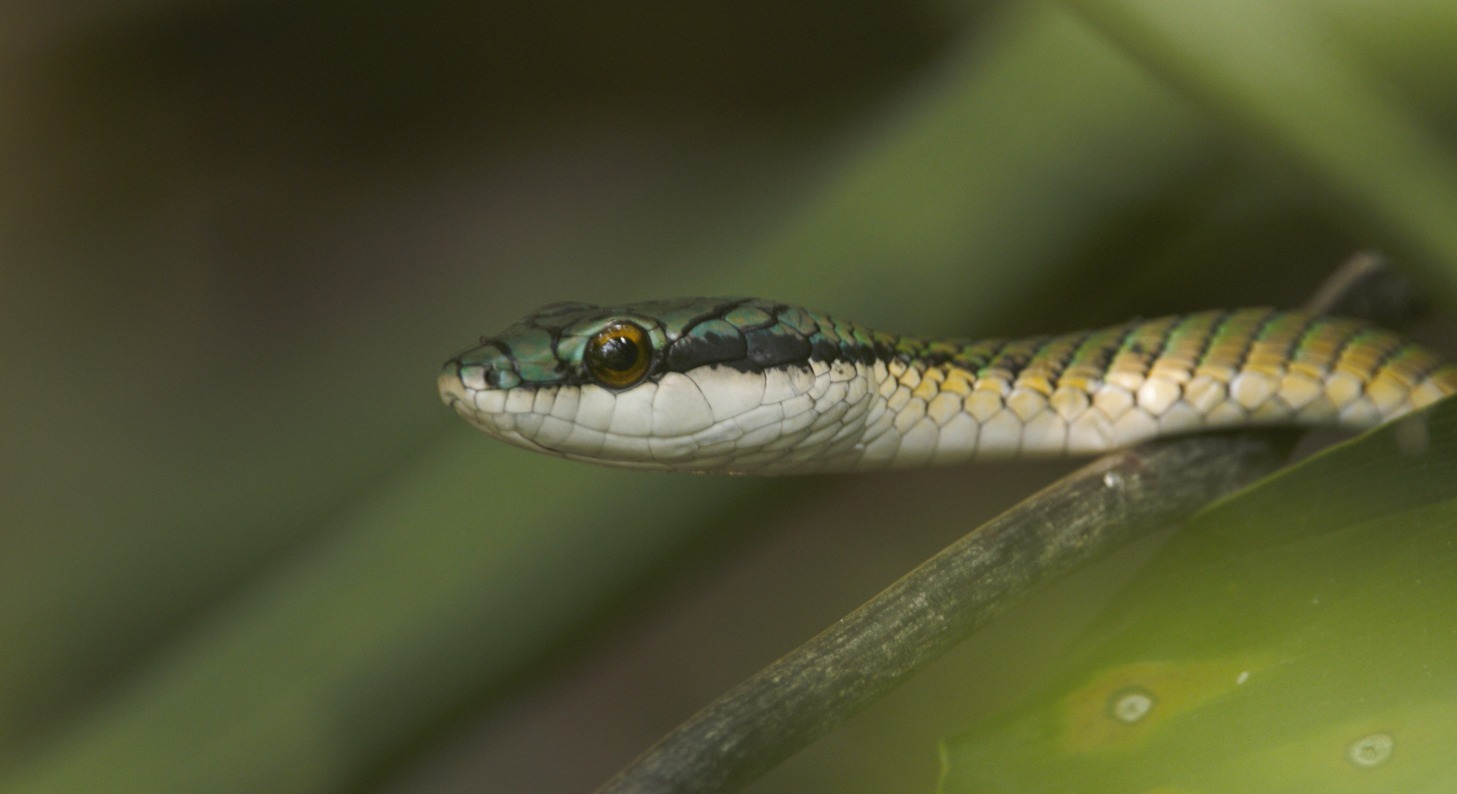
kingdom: Animalia
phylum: Chordata
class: Squamata
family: Colubridae
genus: Leptophis
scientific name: Leptophis ahaetulla
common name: Parrot snake
